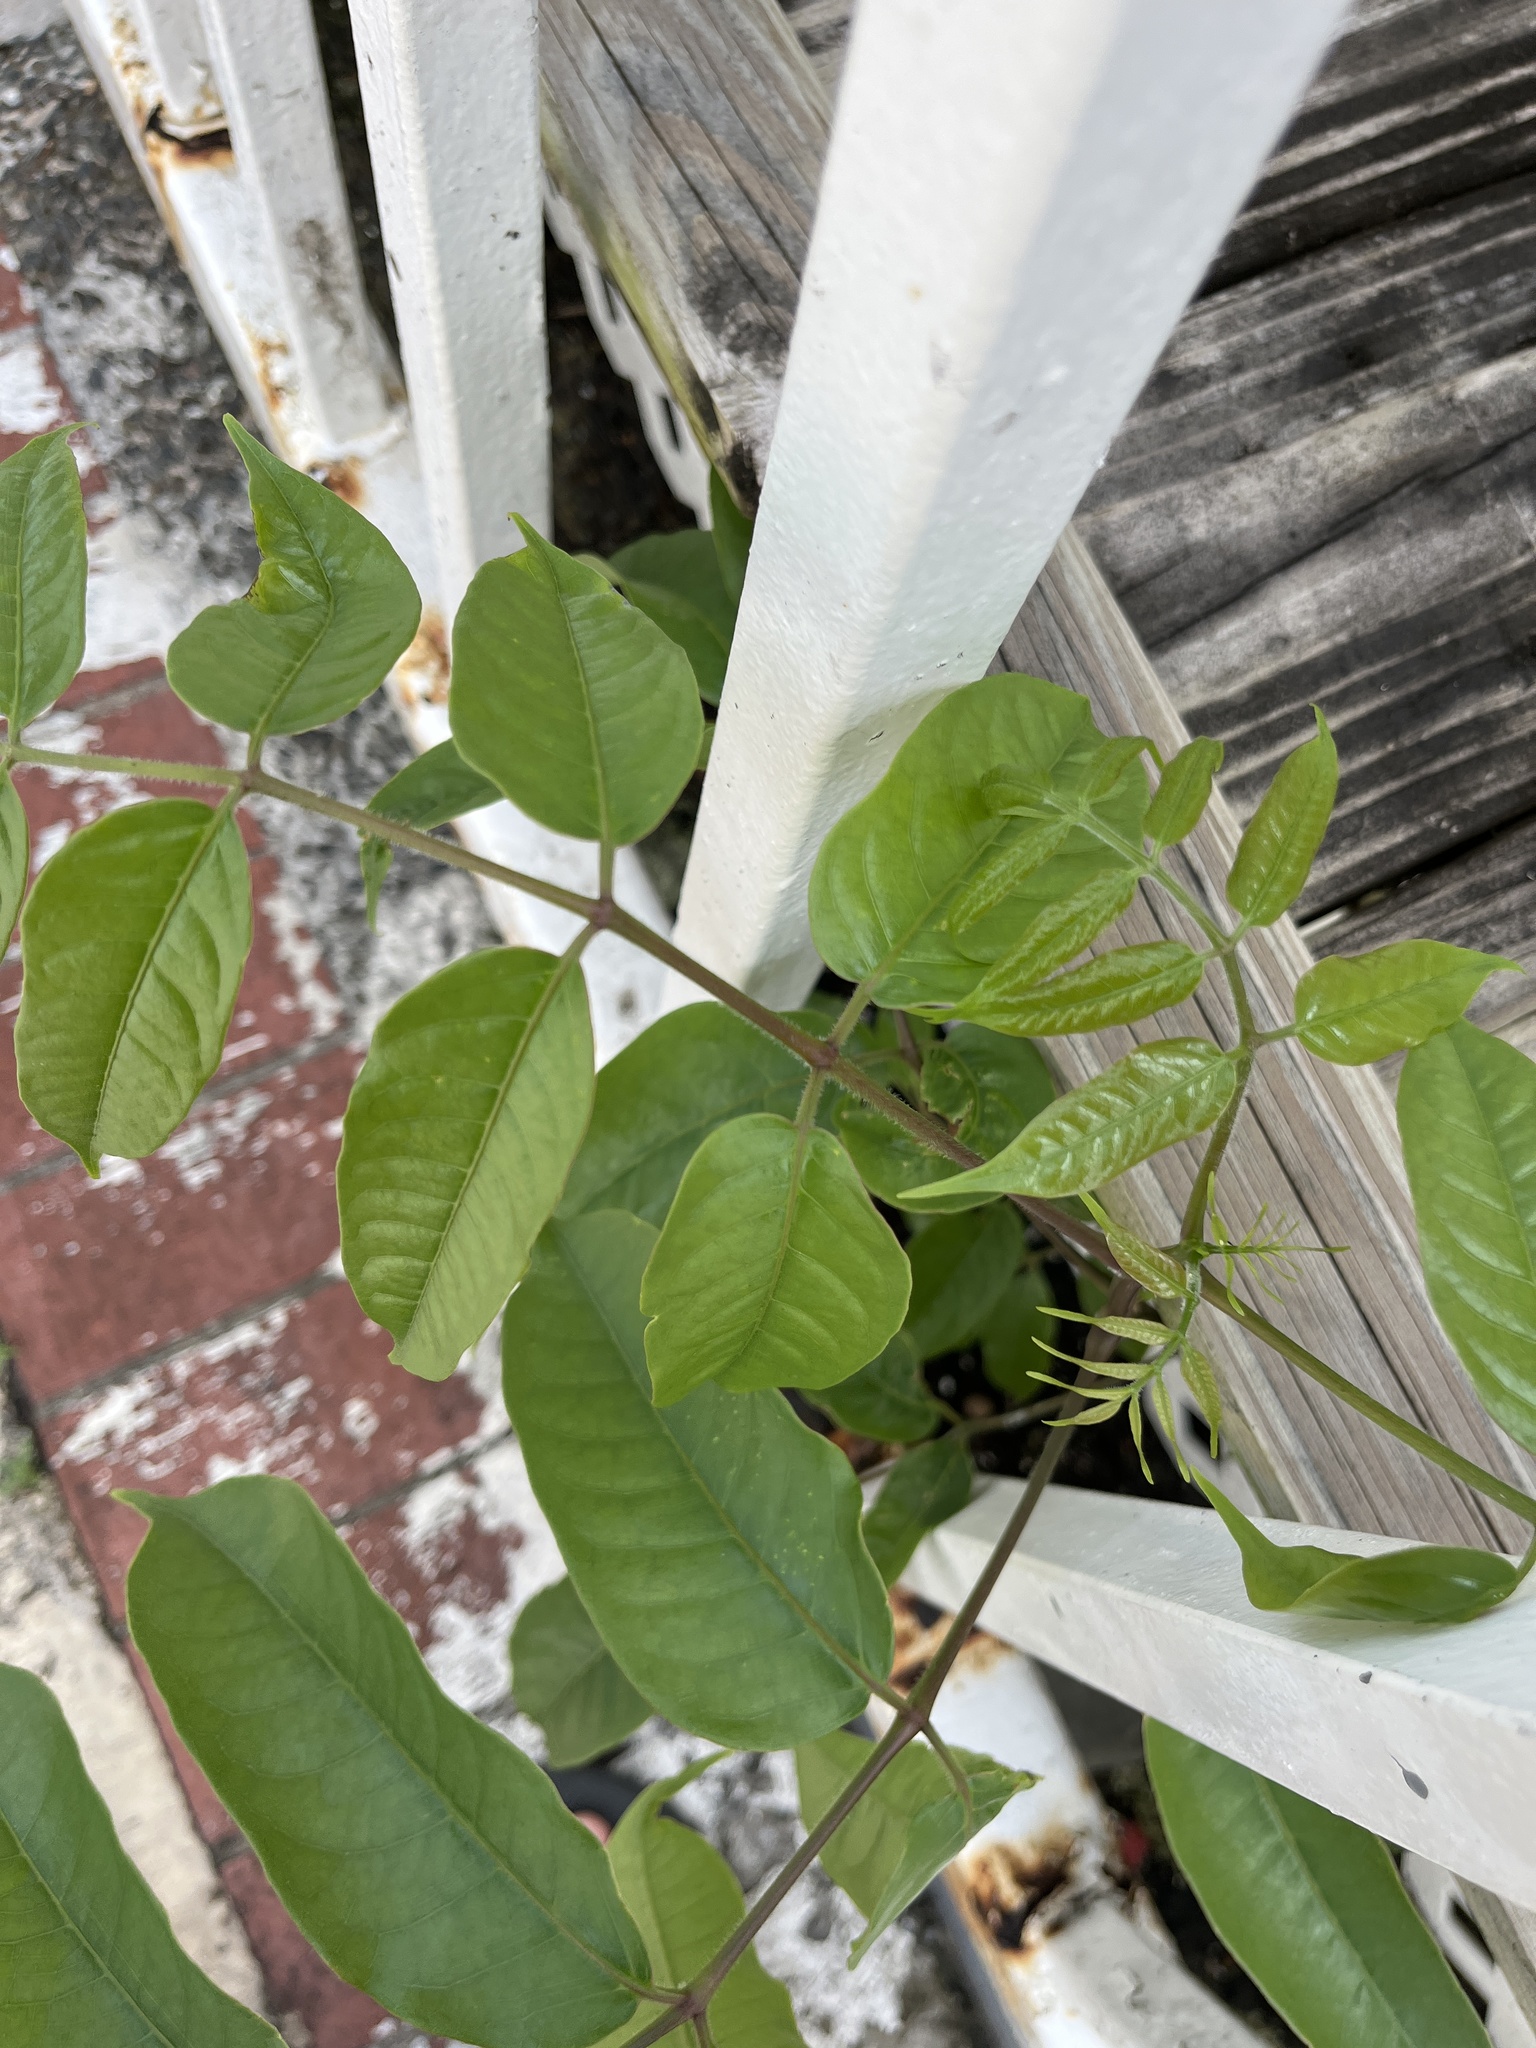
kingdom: Plantae
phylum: Tracheophyta
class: Magnoliopsida
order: Sapindales
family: Burseraceae
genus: Bursera
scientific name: Bursera simaruba
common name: Turpentine tree
